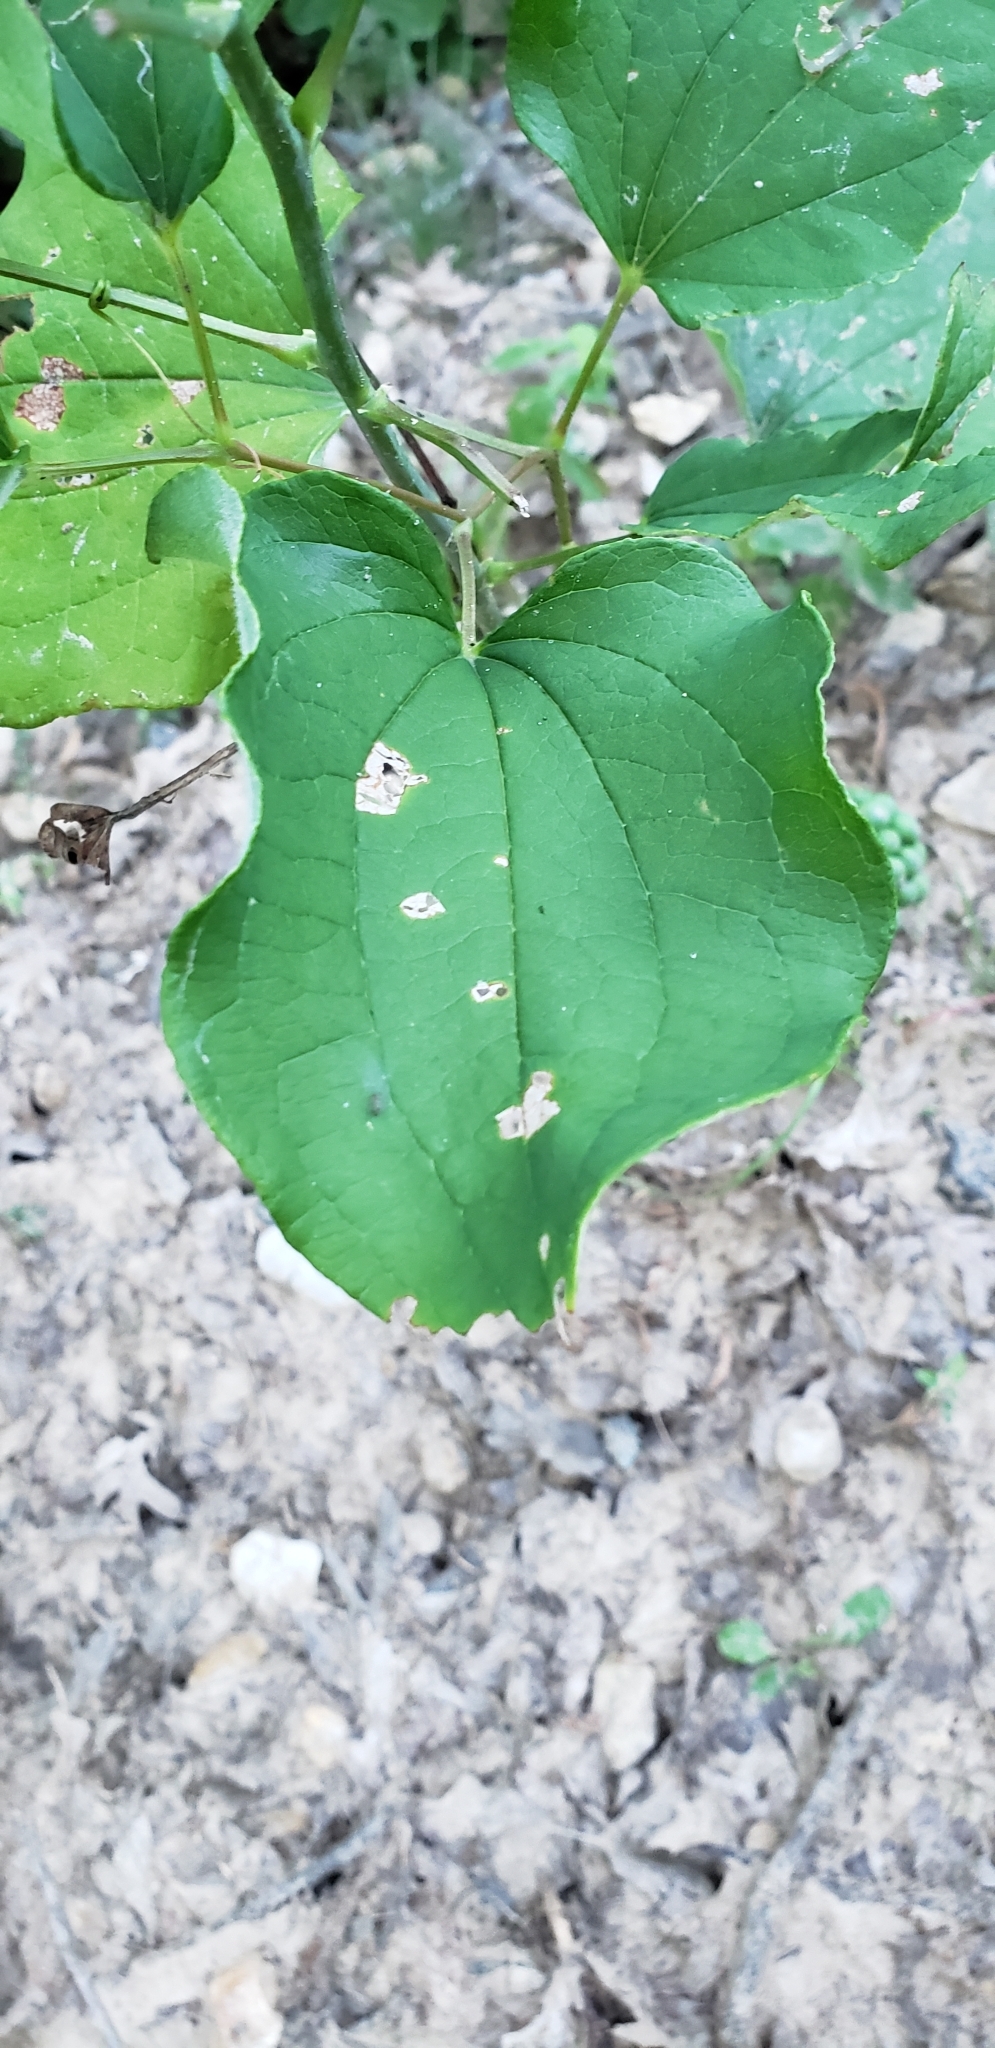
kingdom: Plantae
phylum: Tracheophyta
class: Liliopsida
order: Liliales
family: Smilacaceae
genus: Smilax
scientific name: Smilax lasioneura
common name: Blue ridge carrionflower
